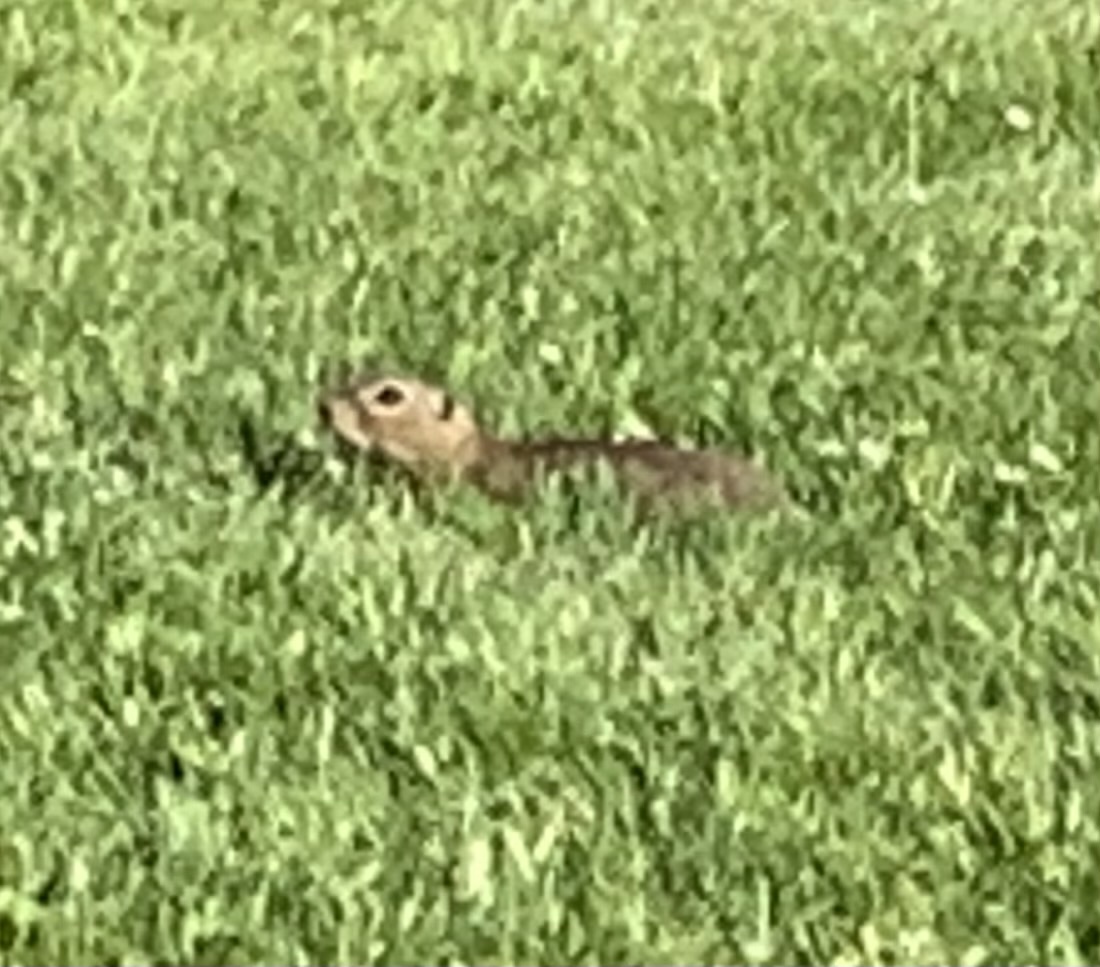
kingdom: Animalia
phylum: Chordata
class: Mammalia
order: Rodentia
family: Sciuridae
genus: Spermophilus
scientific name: Spermophilus citellus
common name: European ground squirrel
